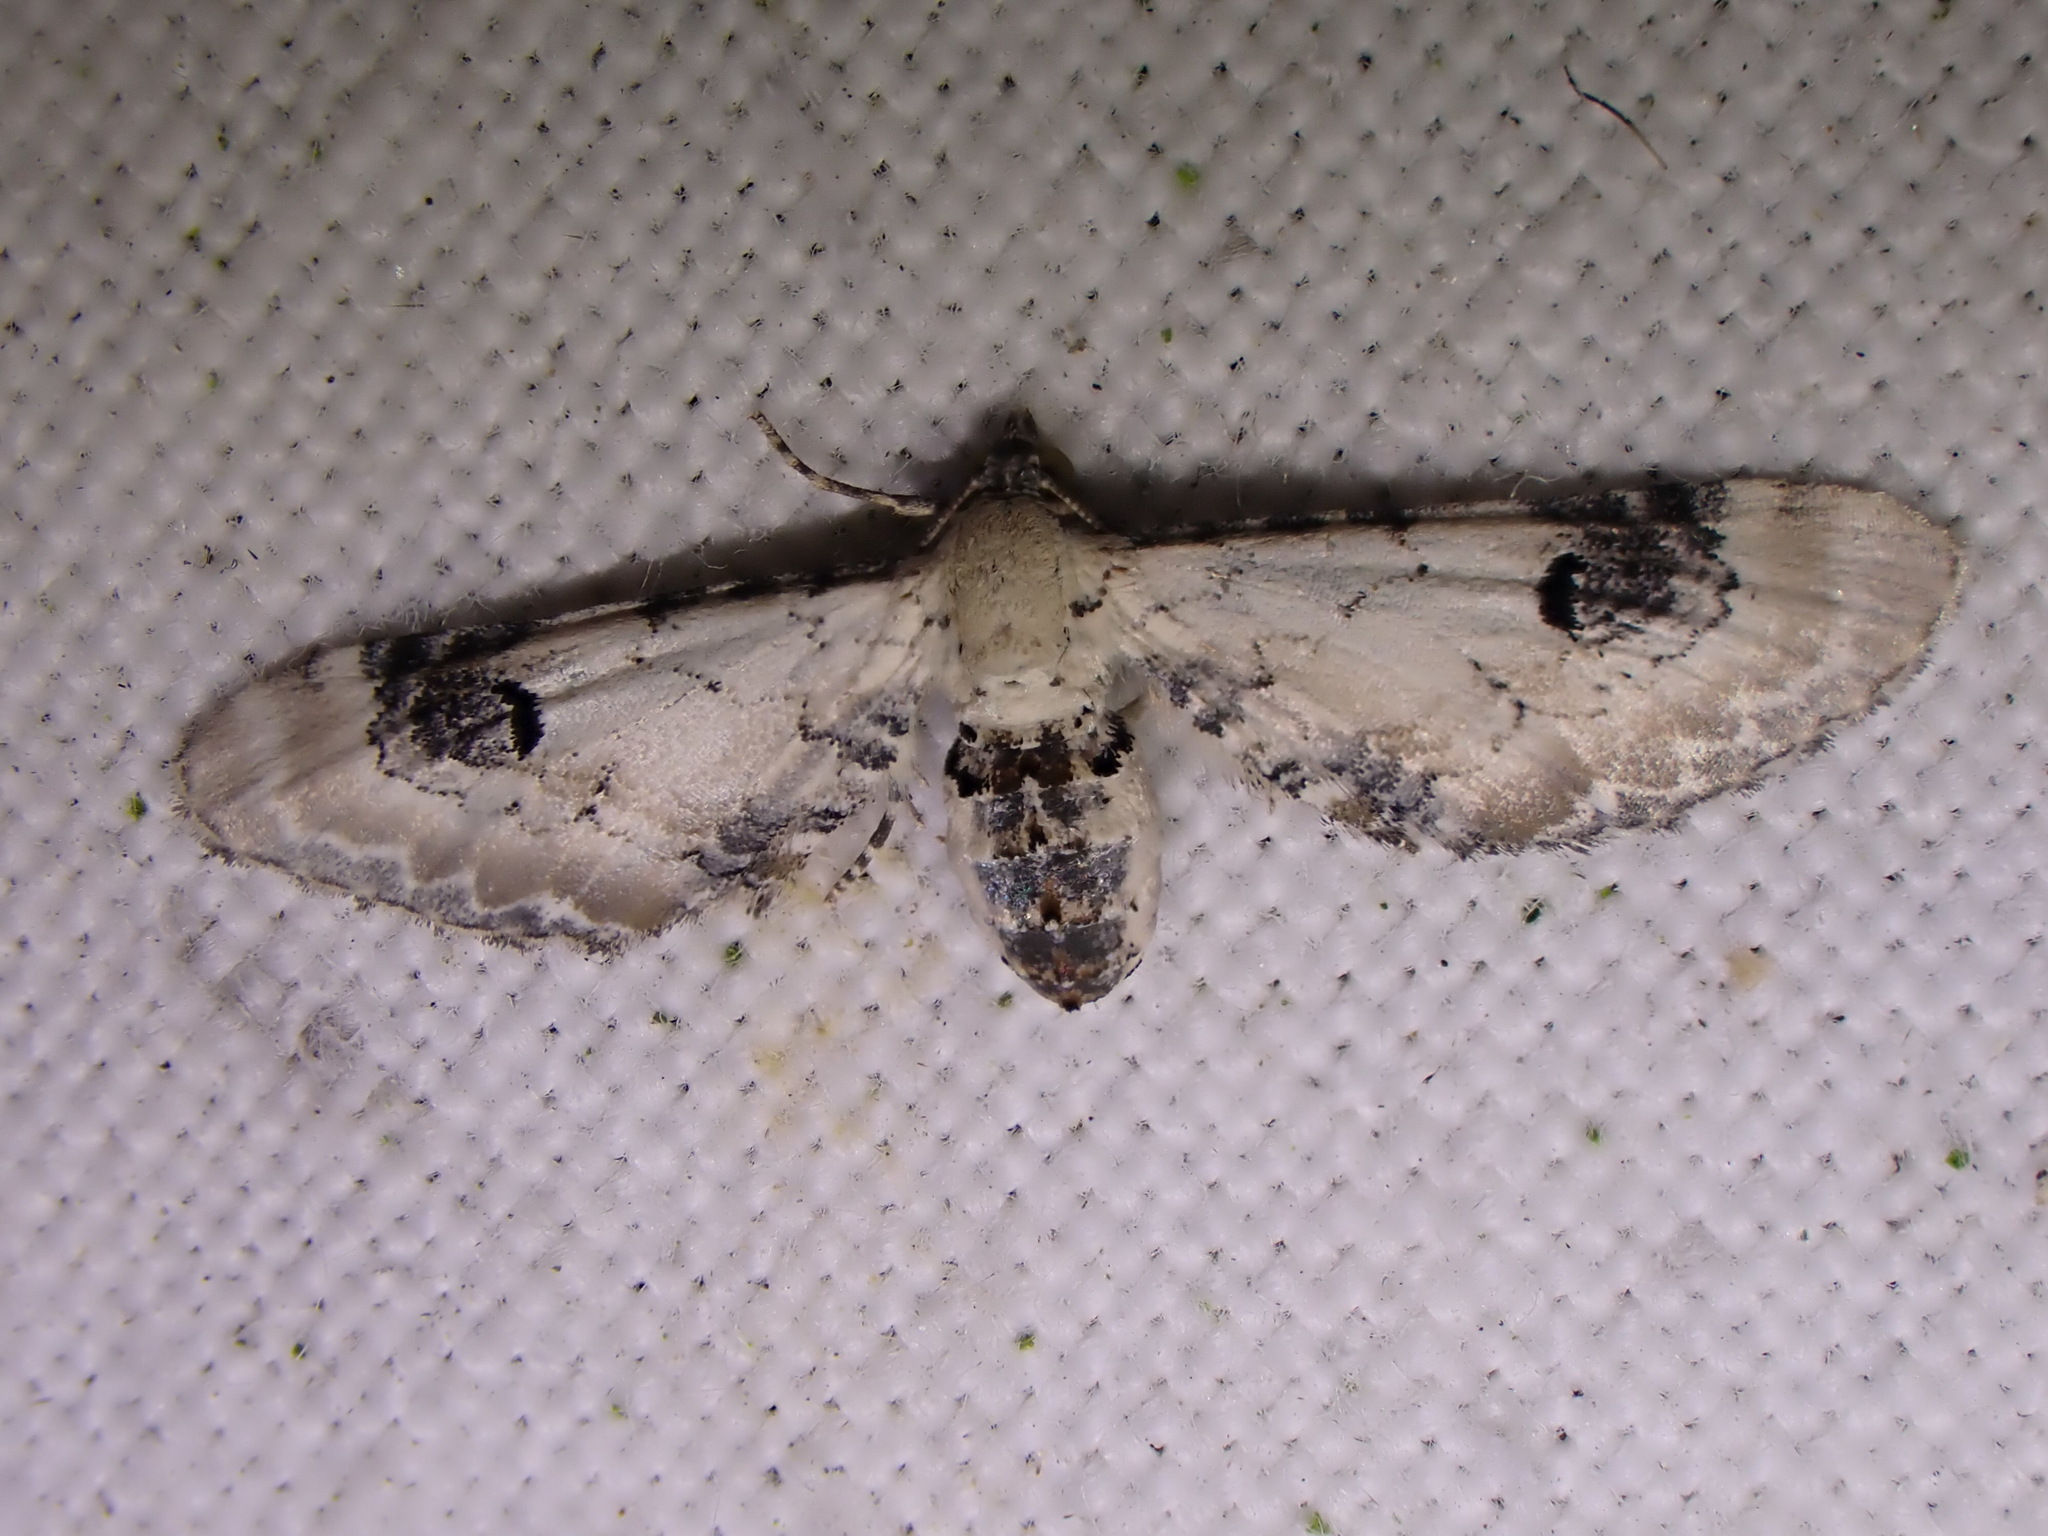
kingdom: Animalia
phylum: Arthropoda
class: Insecta
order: Lepidoptera
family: Geometridae
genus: Eupithecia
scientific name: Eupithecia centaureata
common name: Lime-speck pug
